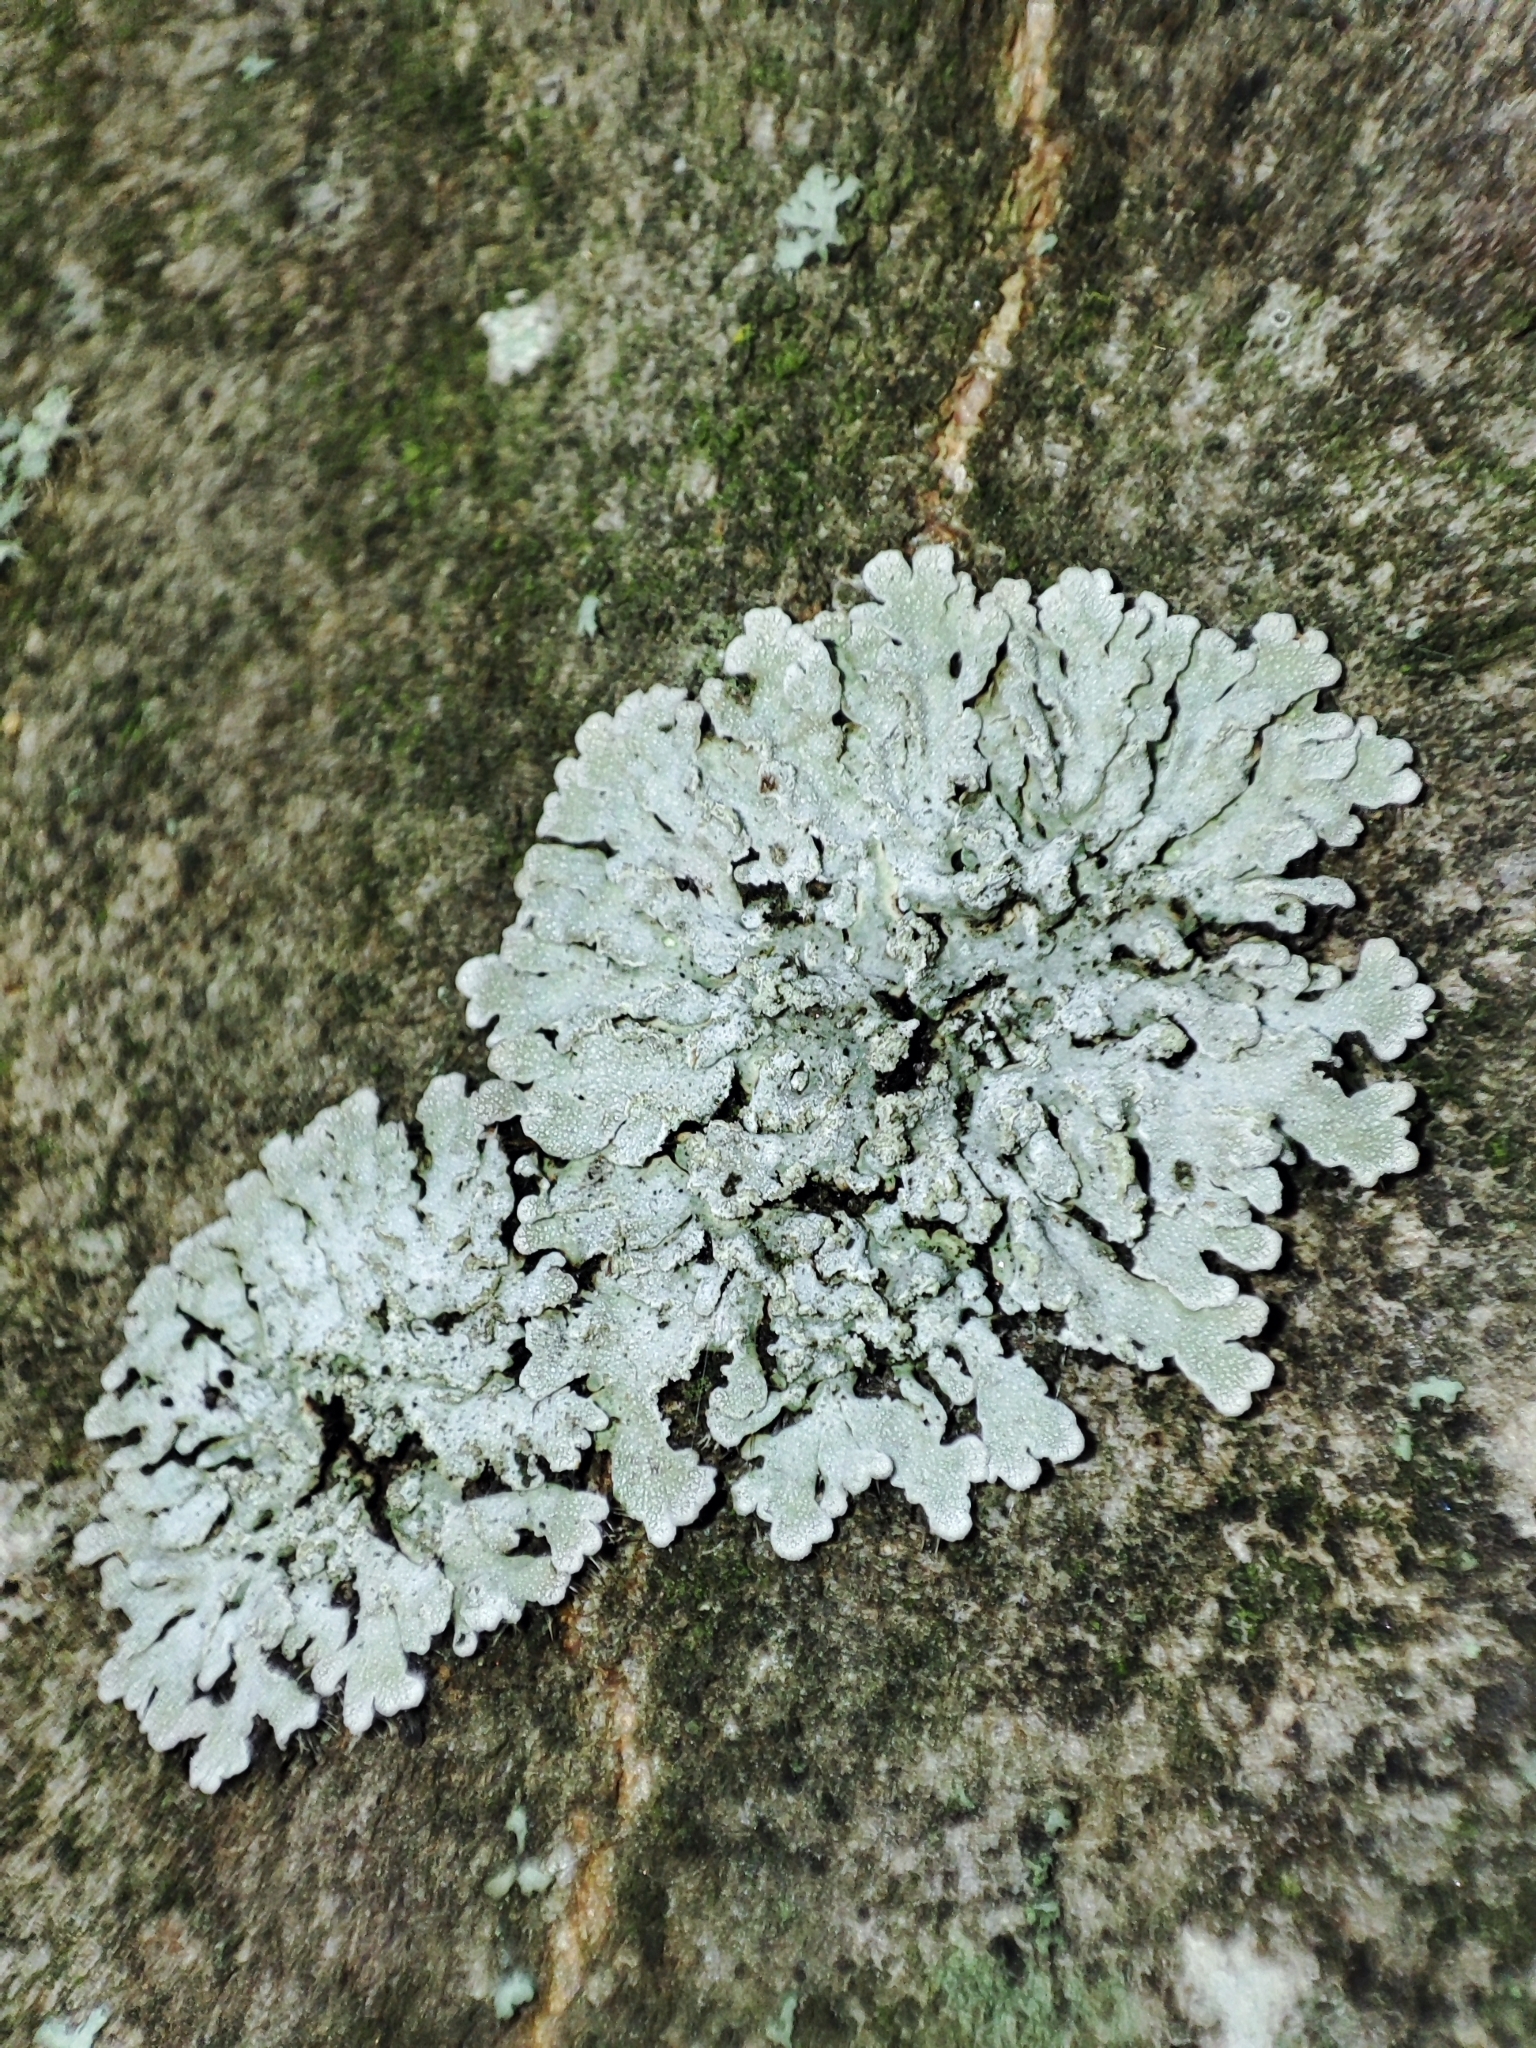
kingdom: Fungi
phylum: Ascomycota
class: Lecanoromycetes
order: Caliciales
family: Physciaceae
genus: Poeltonia
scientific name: Poeltonia grisea
